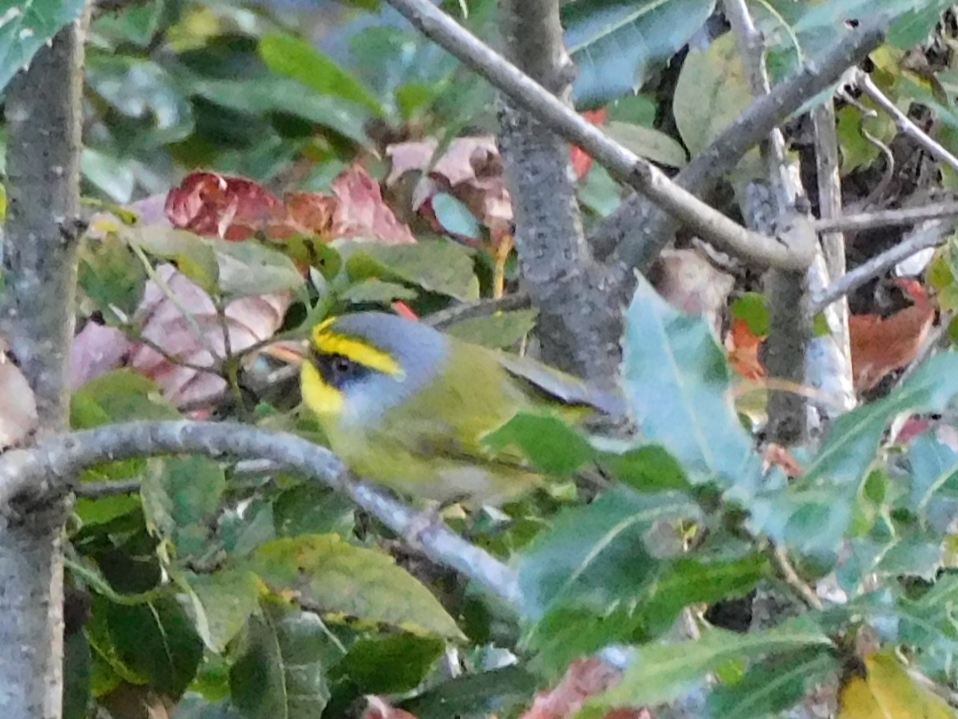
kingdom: Animalia
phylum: Chordata
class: Aves
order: Passeriformes
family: Cettiidae
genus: Abroscopus
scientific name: Abroscopus schisticeps
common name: Black-faced warbler
